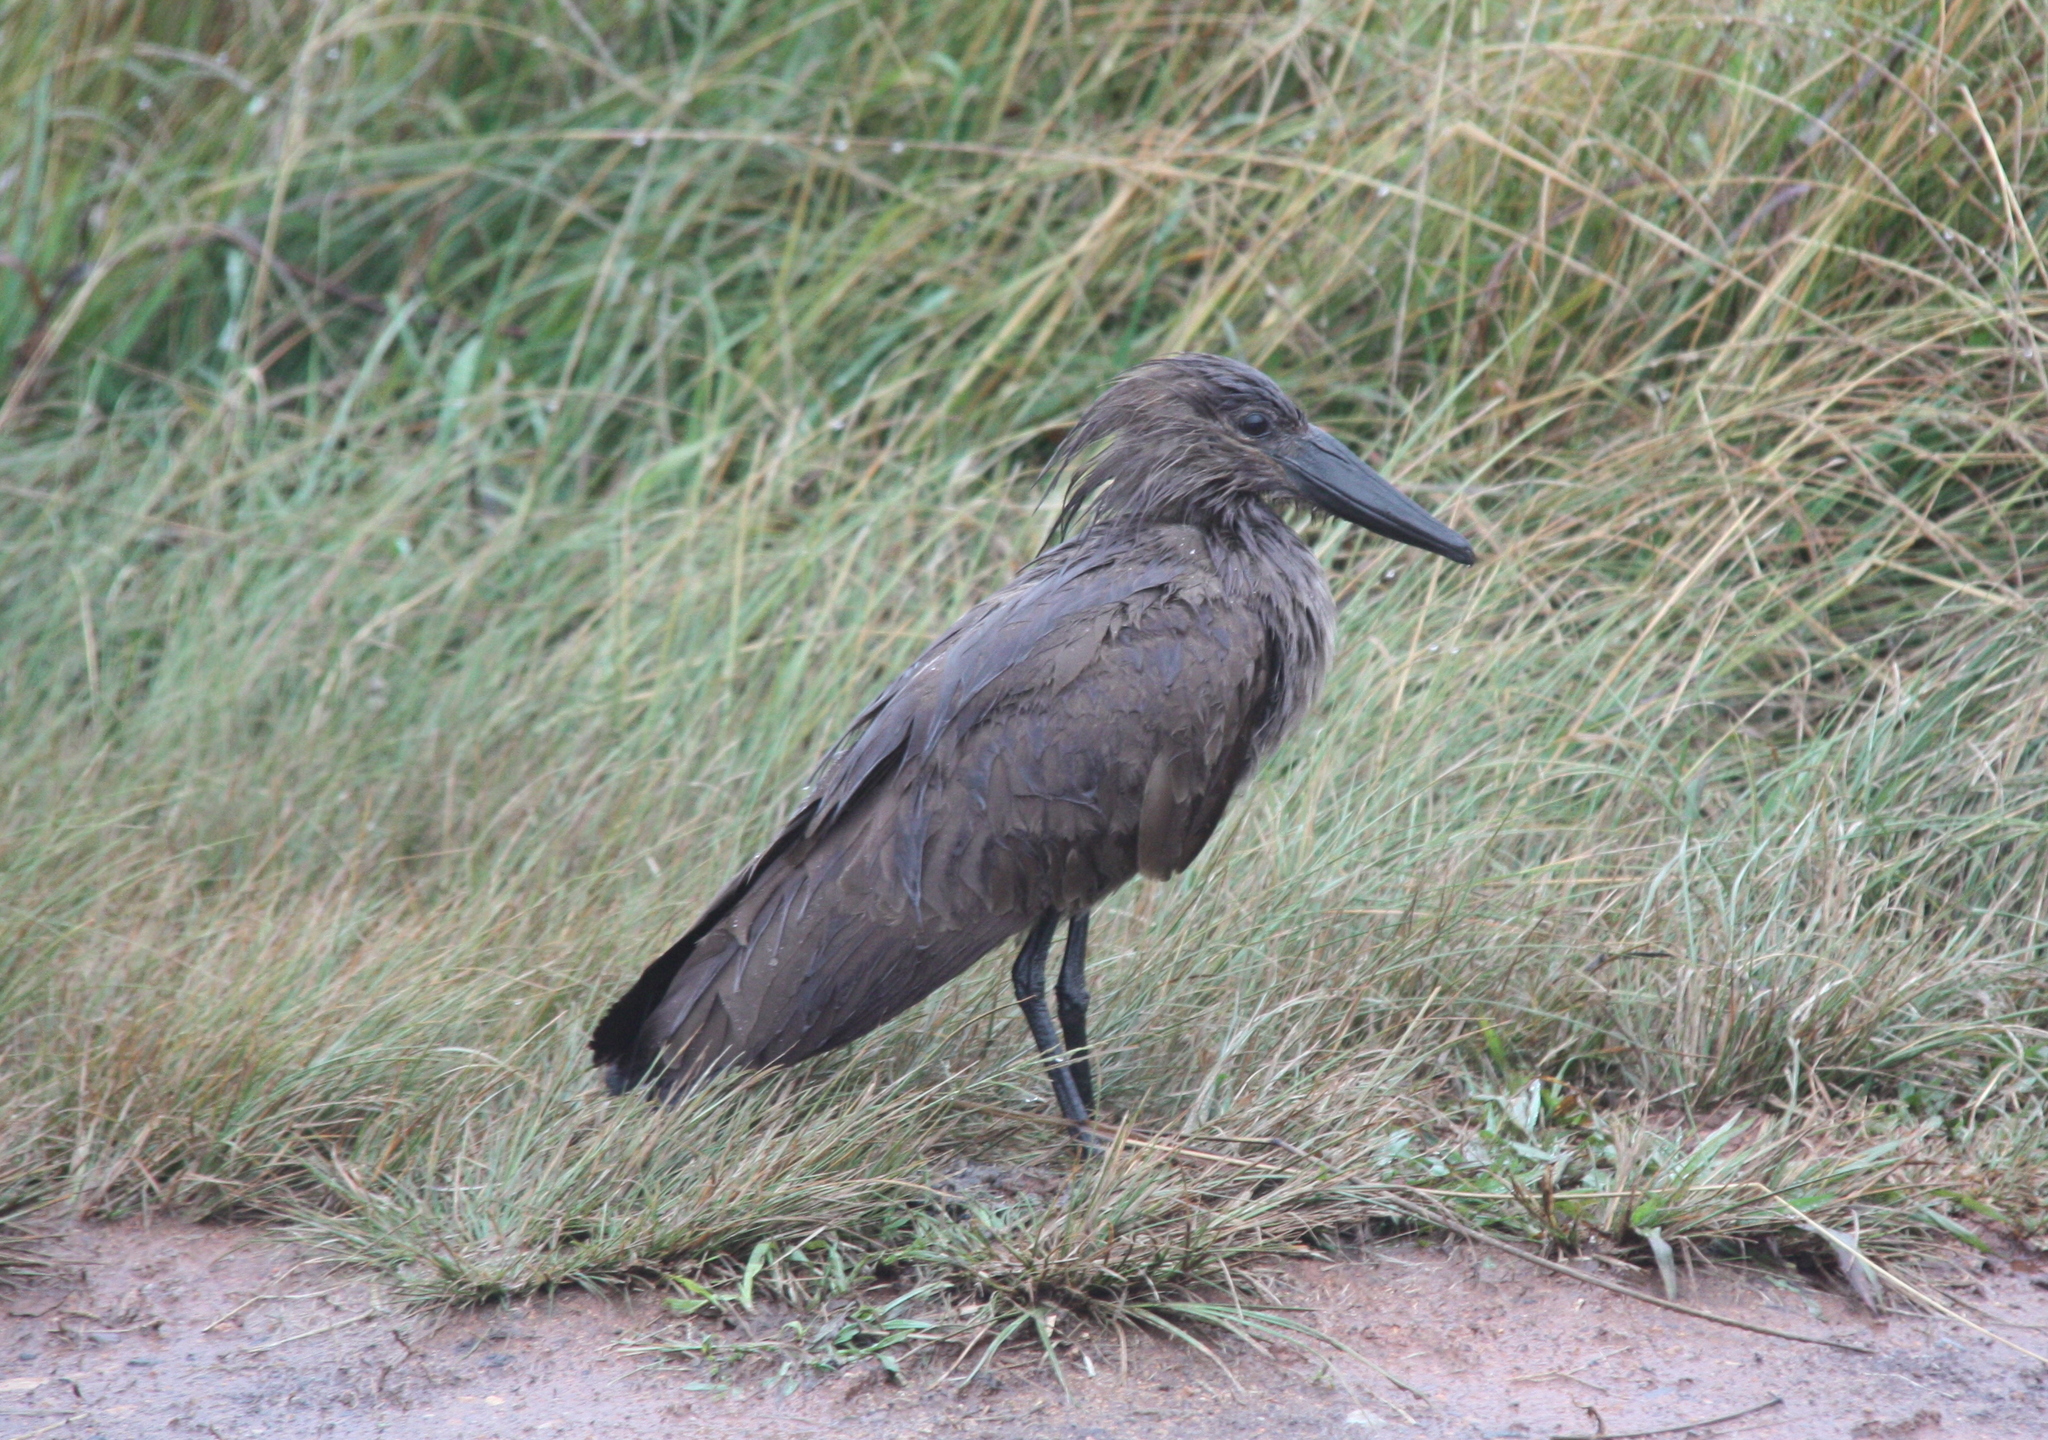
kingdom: Animalia
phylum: Chordata
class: Aves
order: Pelecaniformes
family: Scopidae
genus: Scopus
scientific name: Scopus umbretta
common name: Hamerkop
